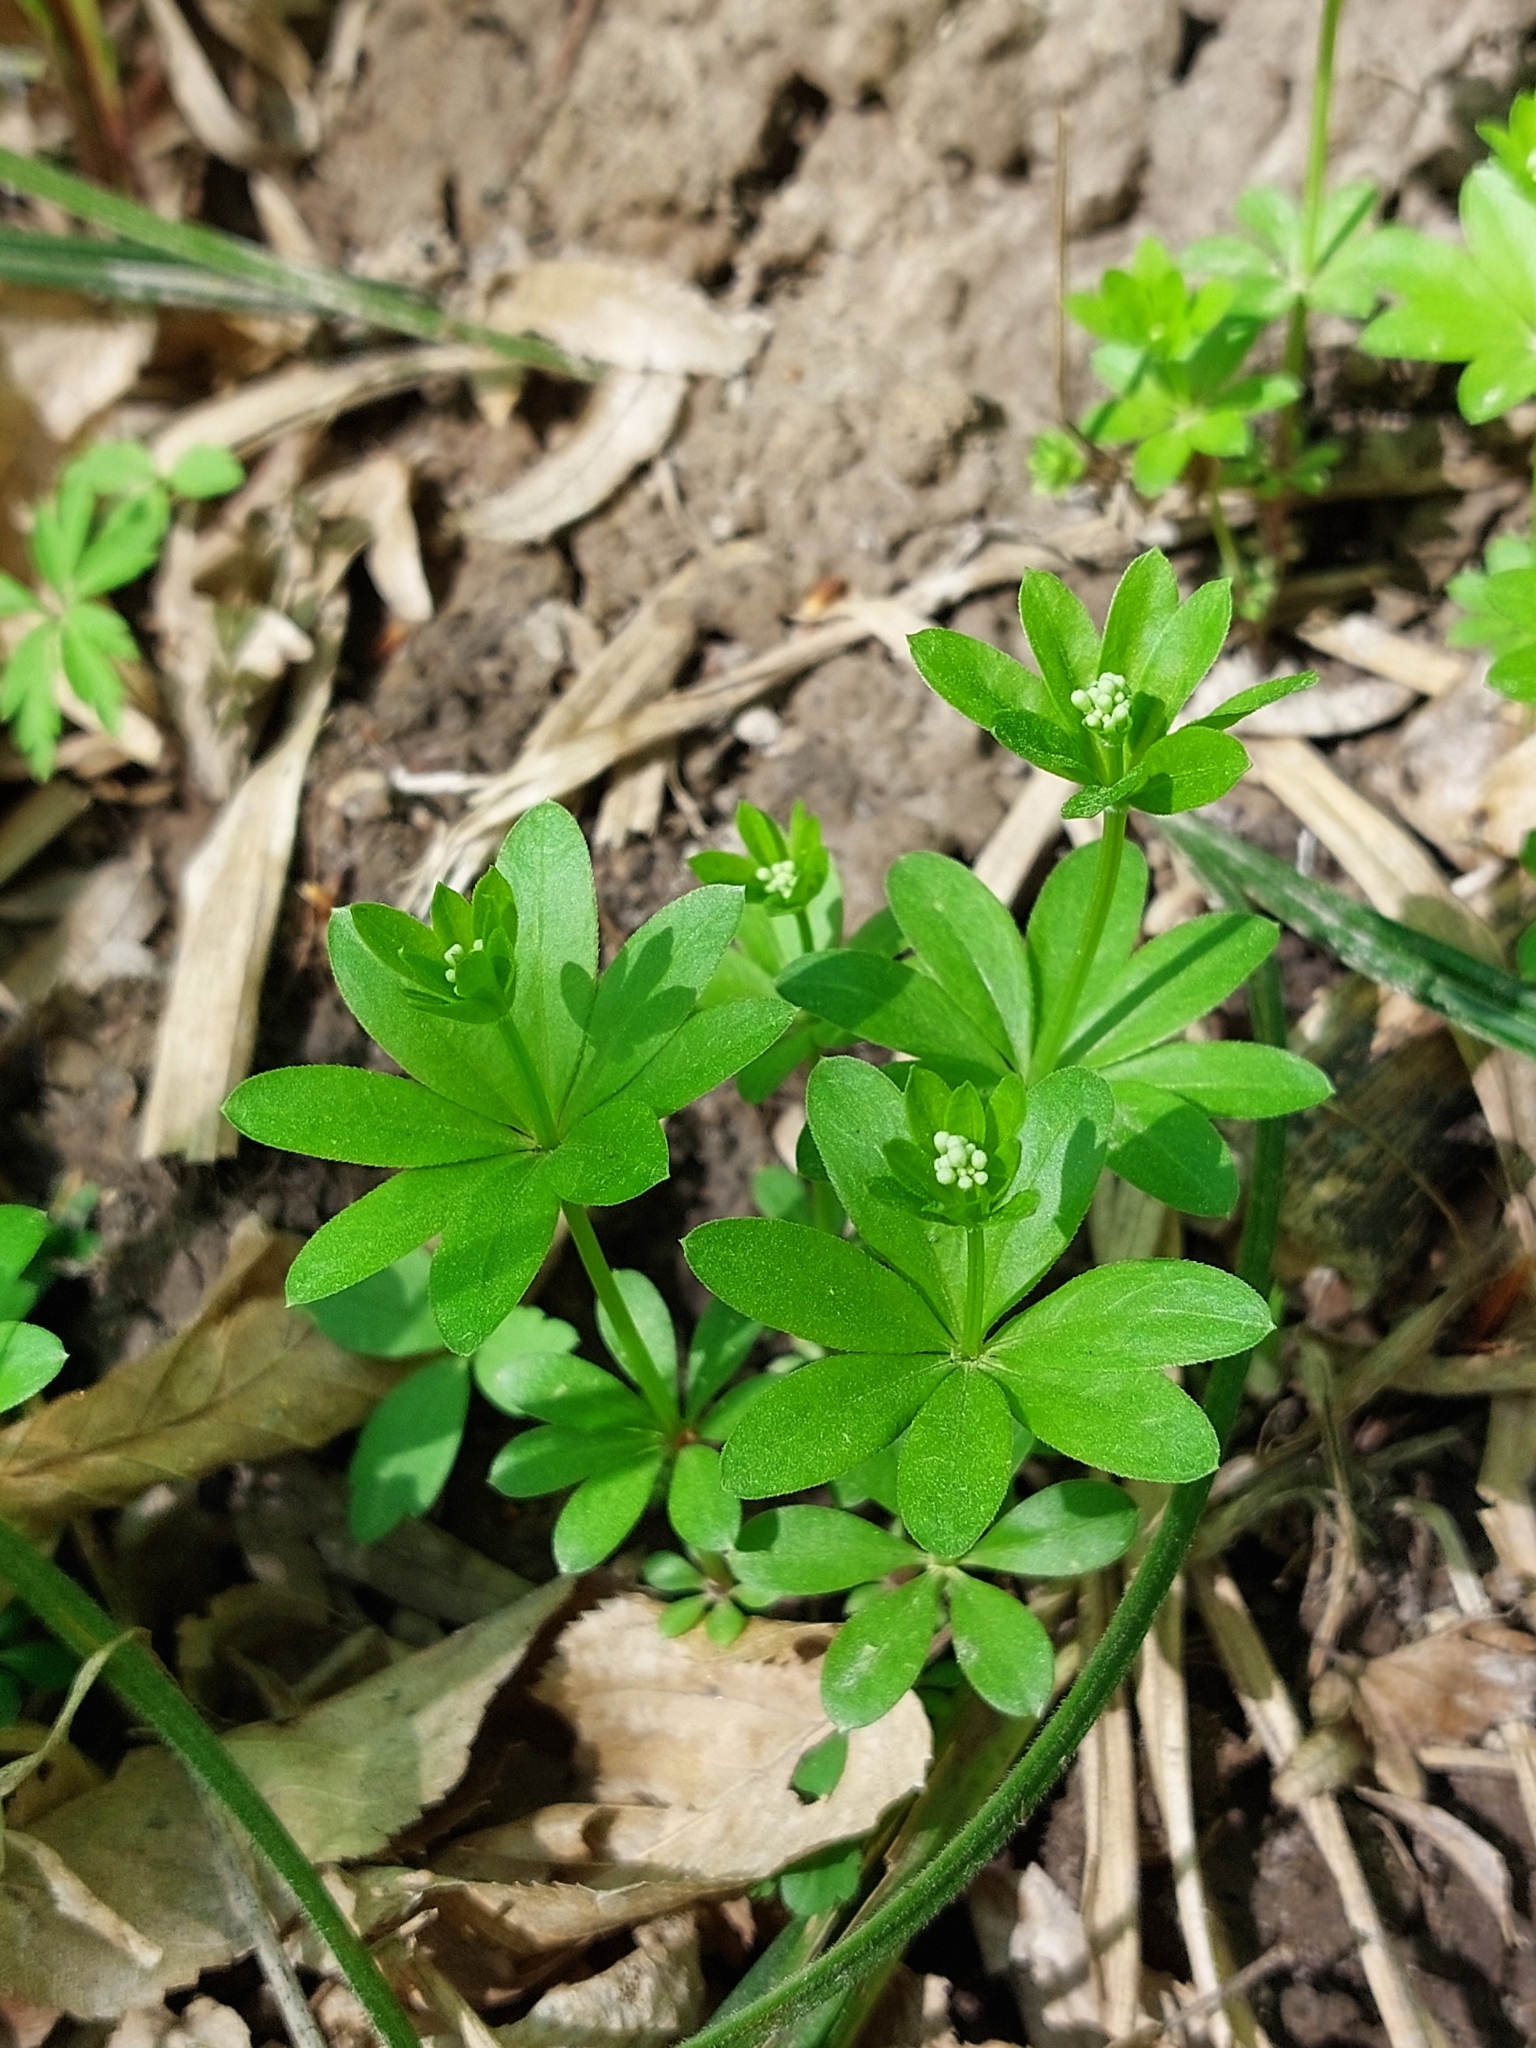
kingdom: Plantae
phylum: Tracheophyta
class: Magnoliopsida
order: Gentianales
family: Rubiaceae
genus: Galium
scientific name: Galium odoratum
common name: Sweet woodruff
